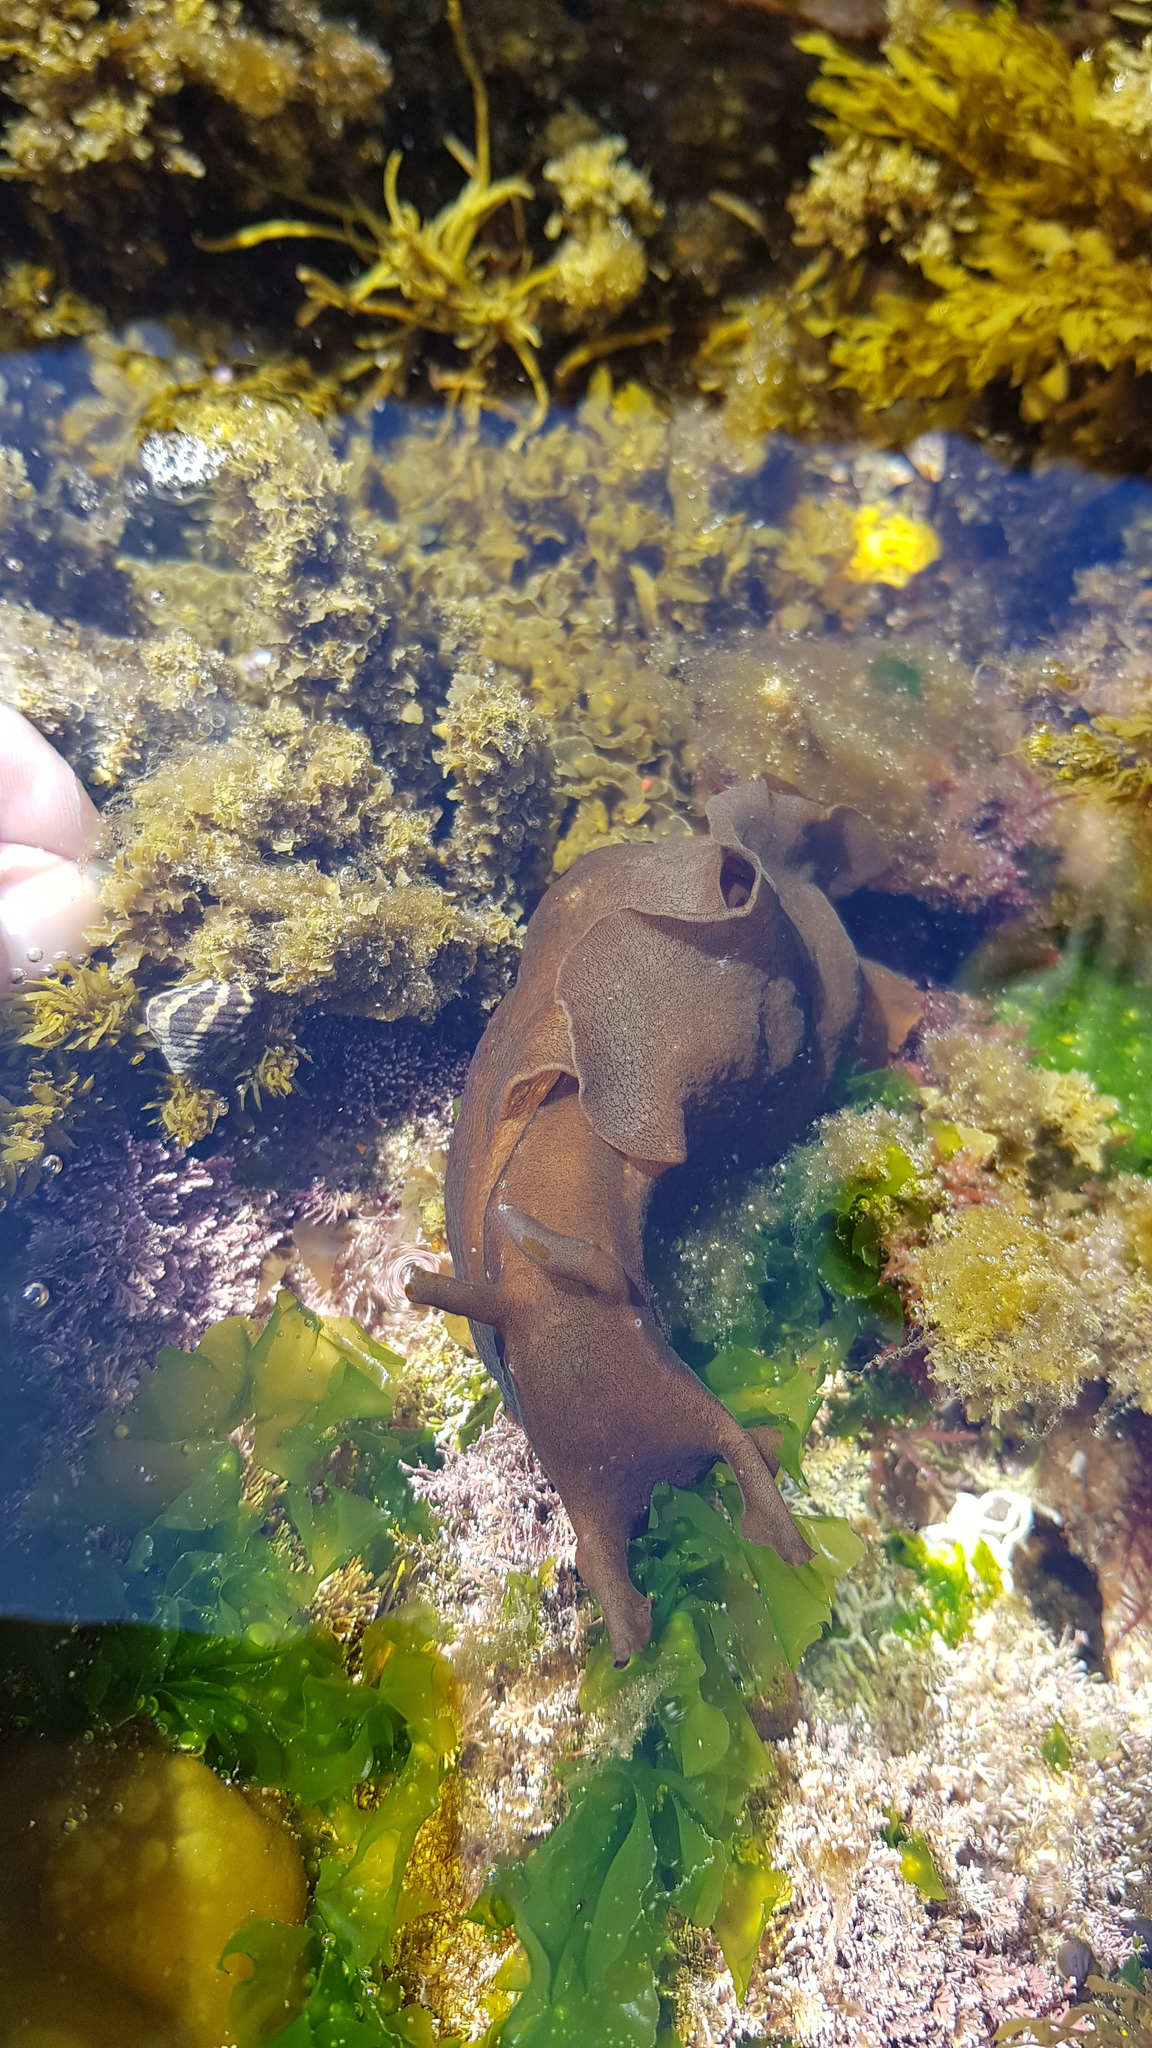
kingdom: Animalia
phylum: Mollusca
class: Gastropoda
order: Aplysiida
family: Aplysiidae
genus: Aplysia
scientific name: Aplysia juliana
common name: Walking sea hare
